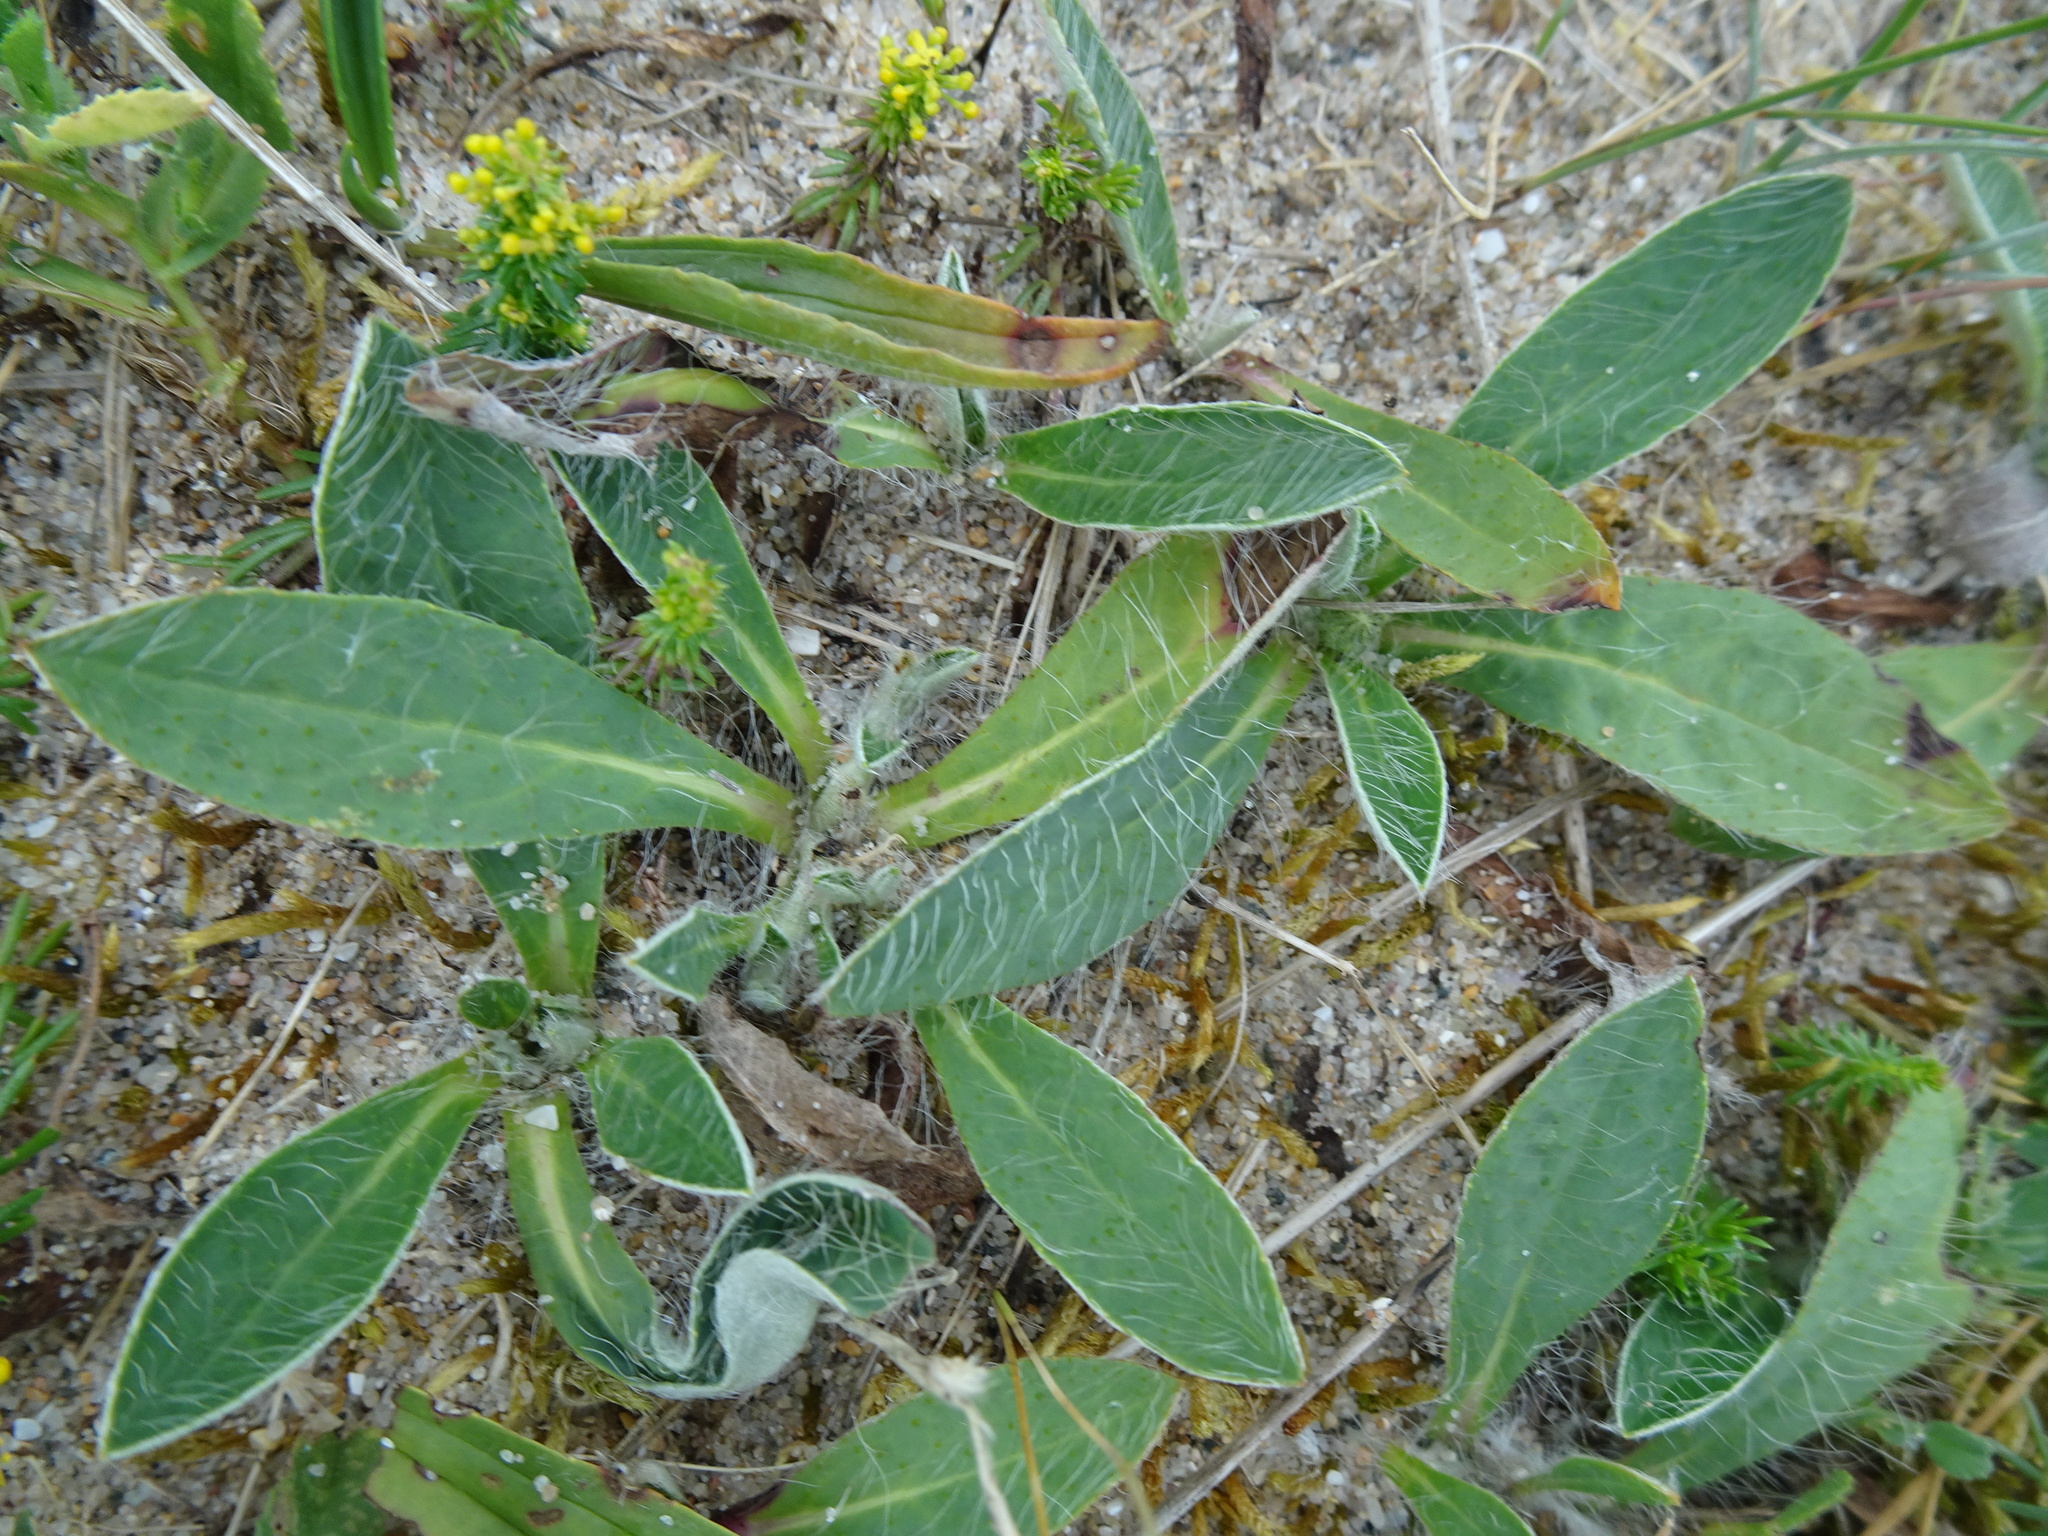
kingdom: Plantae
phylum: Tracheophyta
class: Magnoliopsida
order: Asterales
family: Asteraceae
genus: Pilosella
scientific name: Pilosella officinarum
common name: Mouse-ear hawkweed
